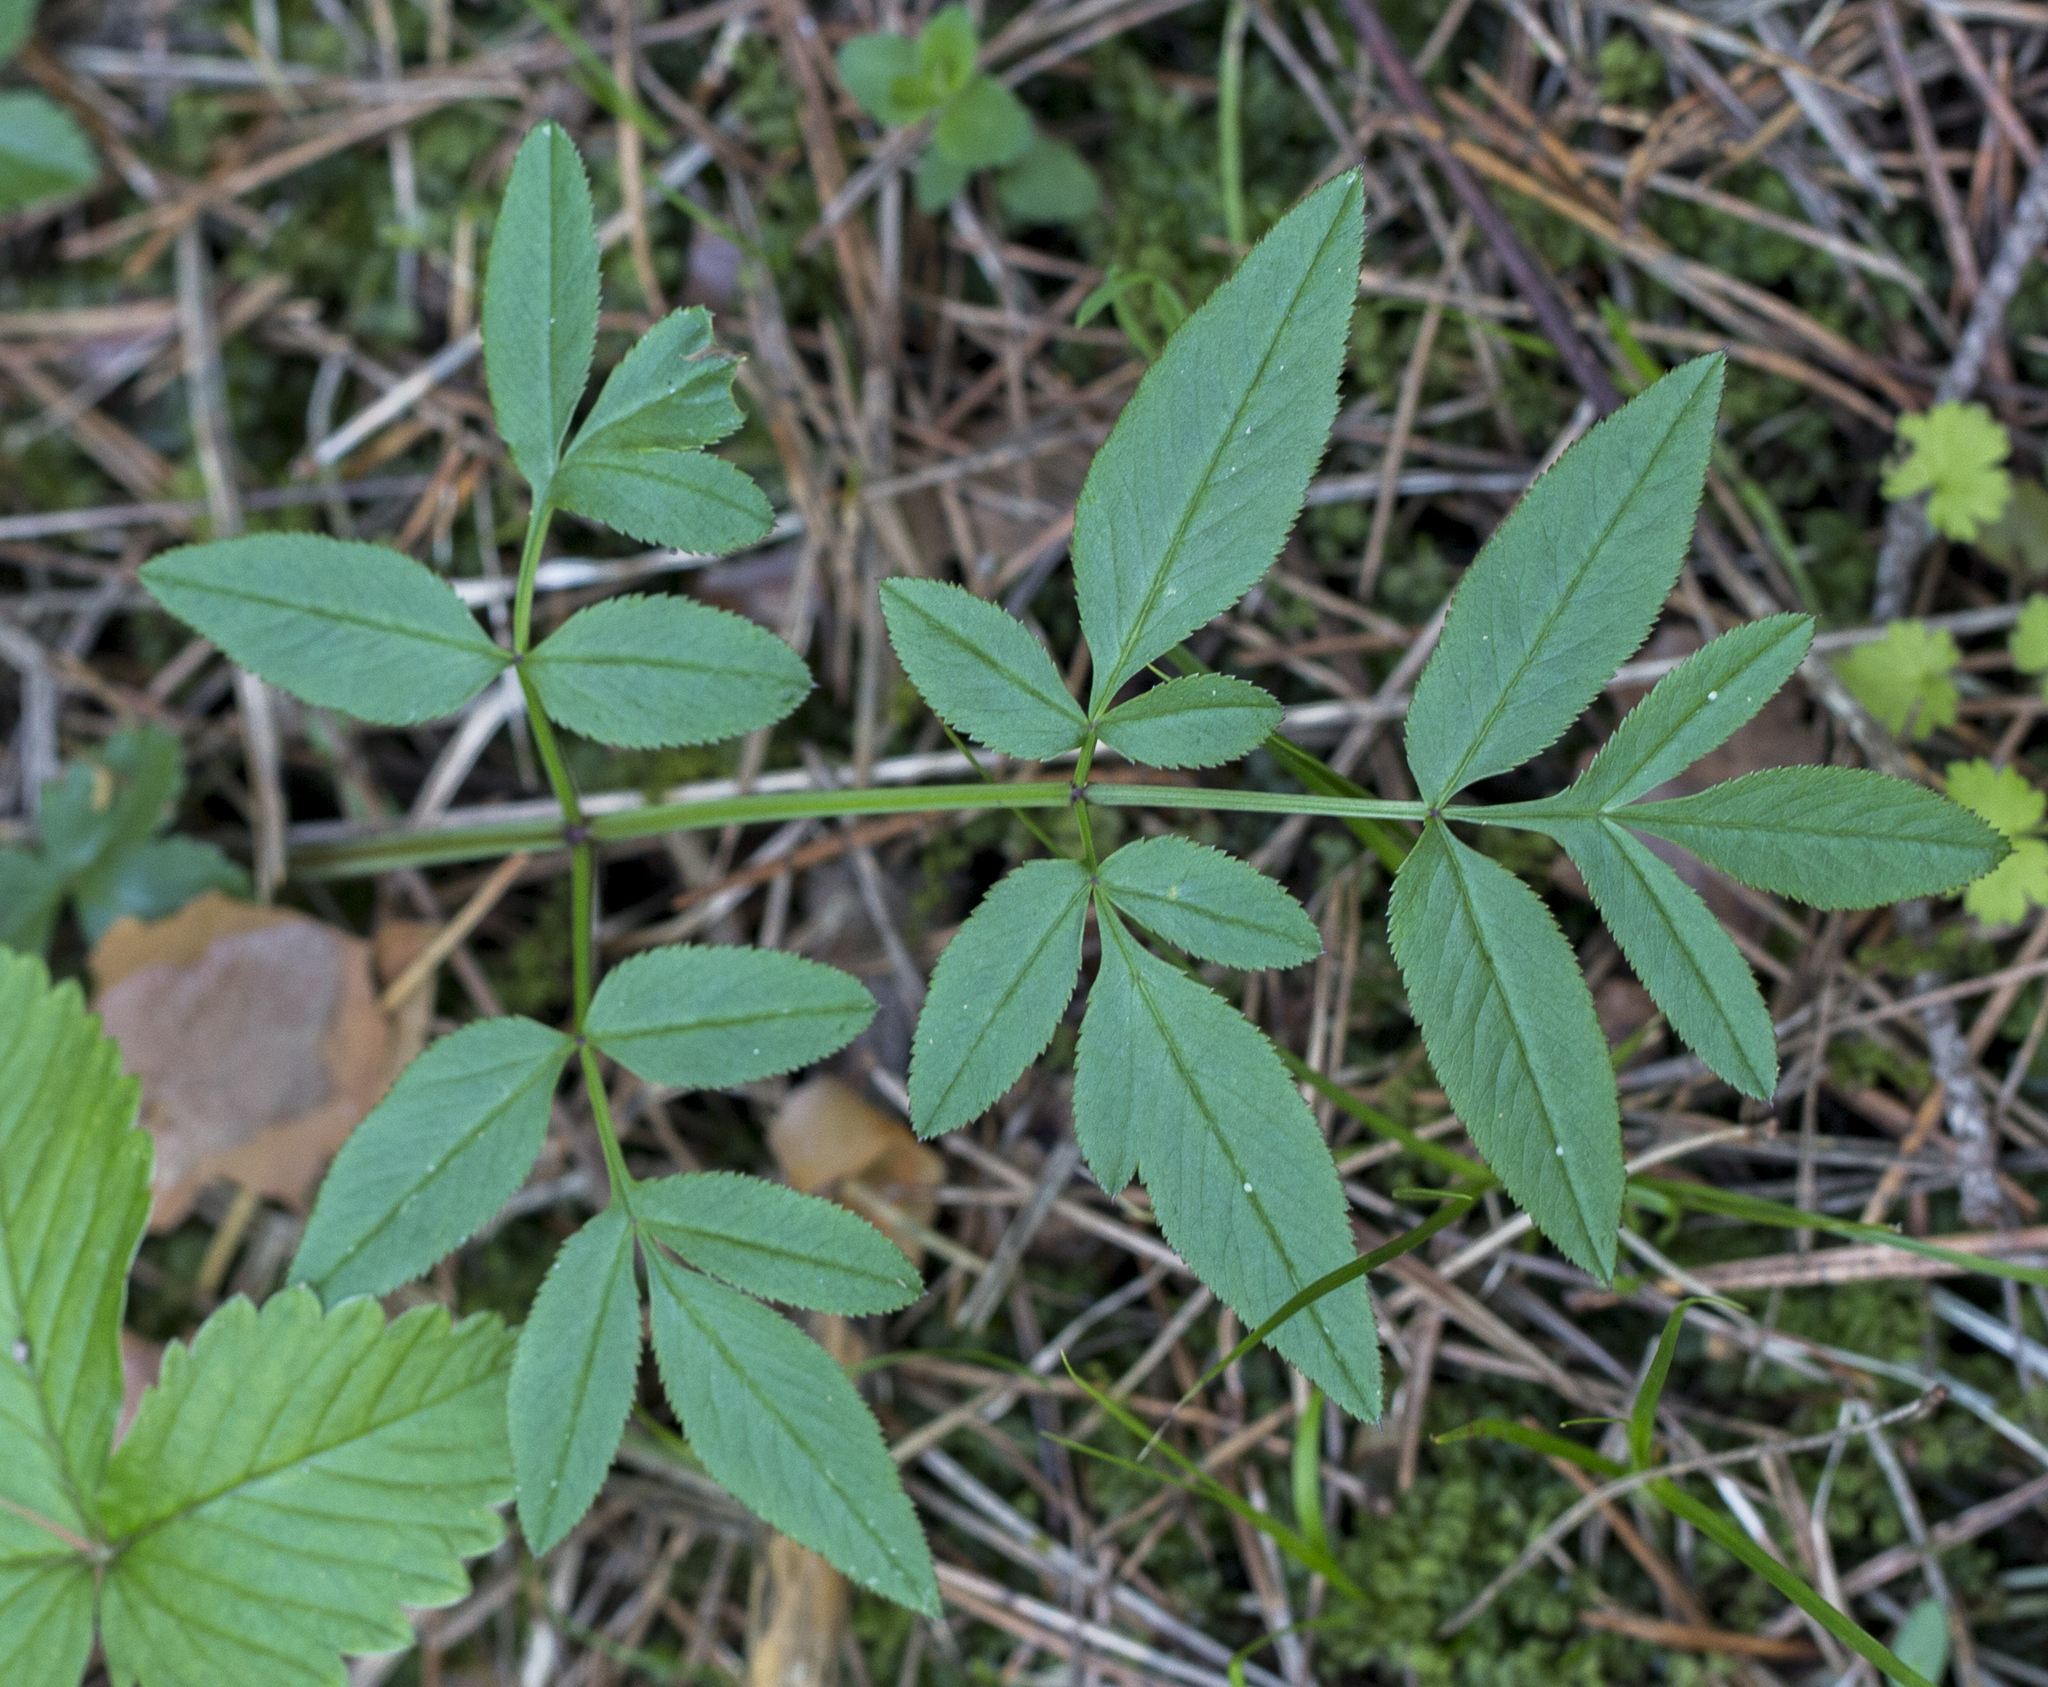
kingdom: Plantae
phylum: Tracheophyta
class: Magnoliopsida
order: Apiales
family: Apiaceae
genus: Angelica
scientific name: Angelica sylvestris
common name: Wild angelica
